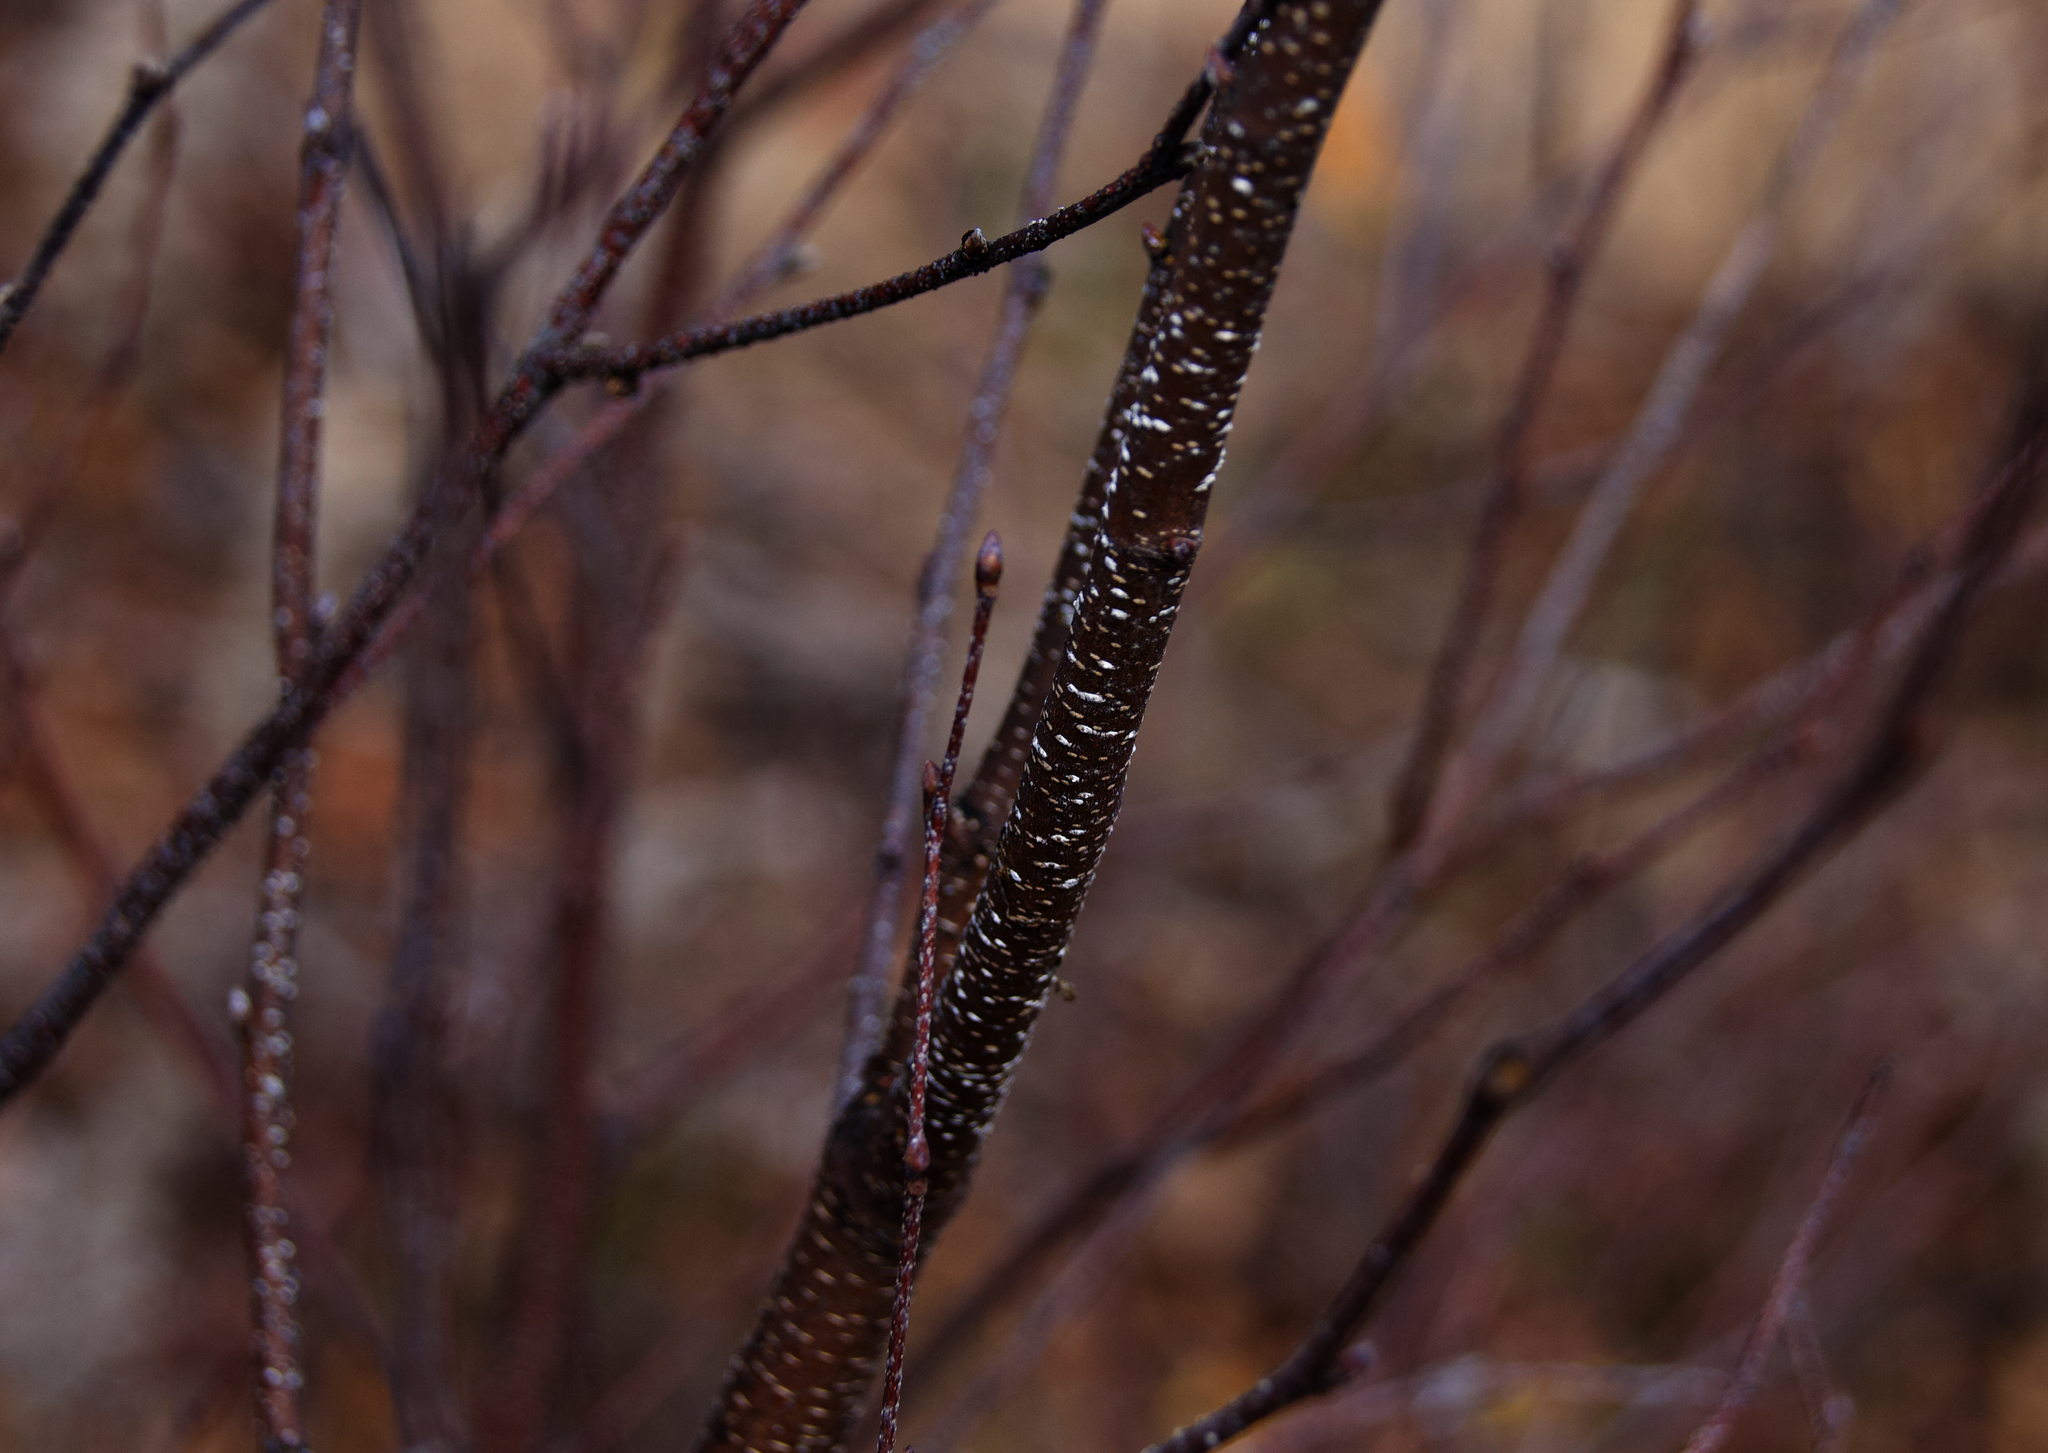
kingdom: Plantae
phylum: Tracheophyta
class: Magnoliopsida
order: Fagales
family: Betulaceae
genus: Betula
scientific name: Betula populifolia
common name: Fire birch
